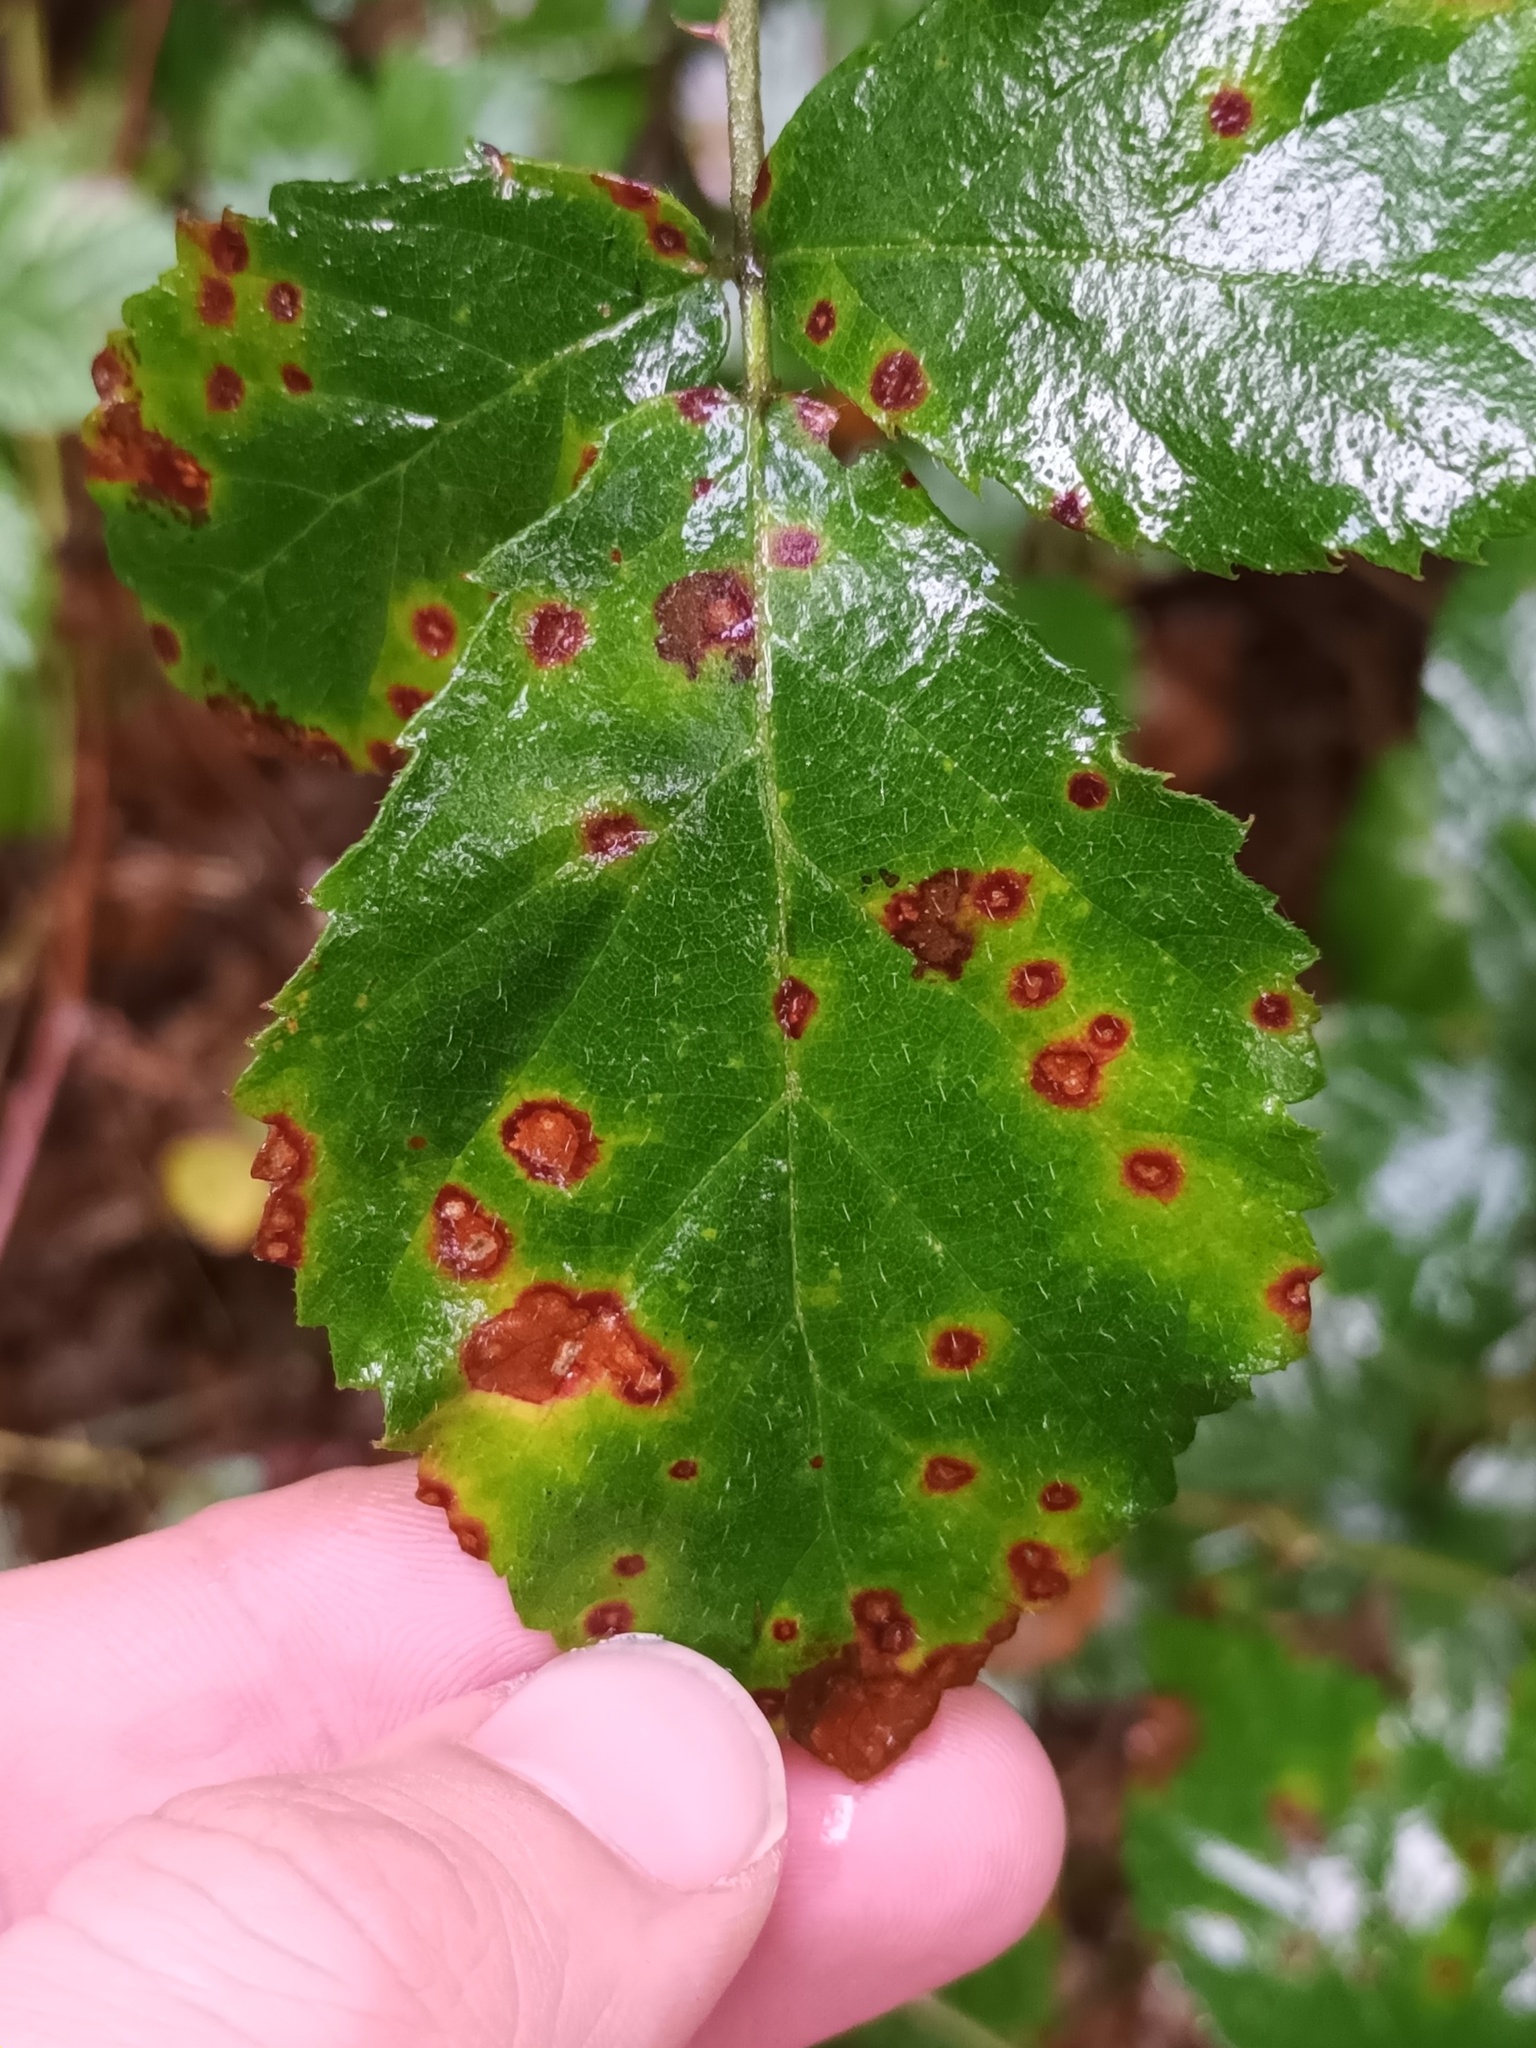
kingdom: Fungi
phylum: Basidiomycota
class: Pucciniomycetes
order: Pucciniales
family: Phragmidiaceae
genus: Phragmidium
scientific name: Phragmidium violaceum
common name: Violet bramble rust
